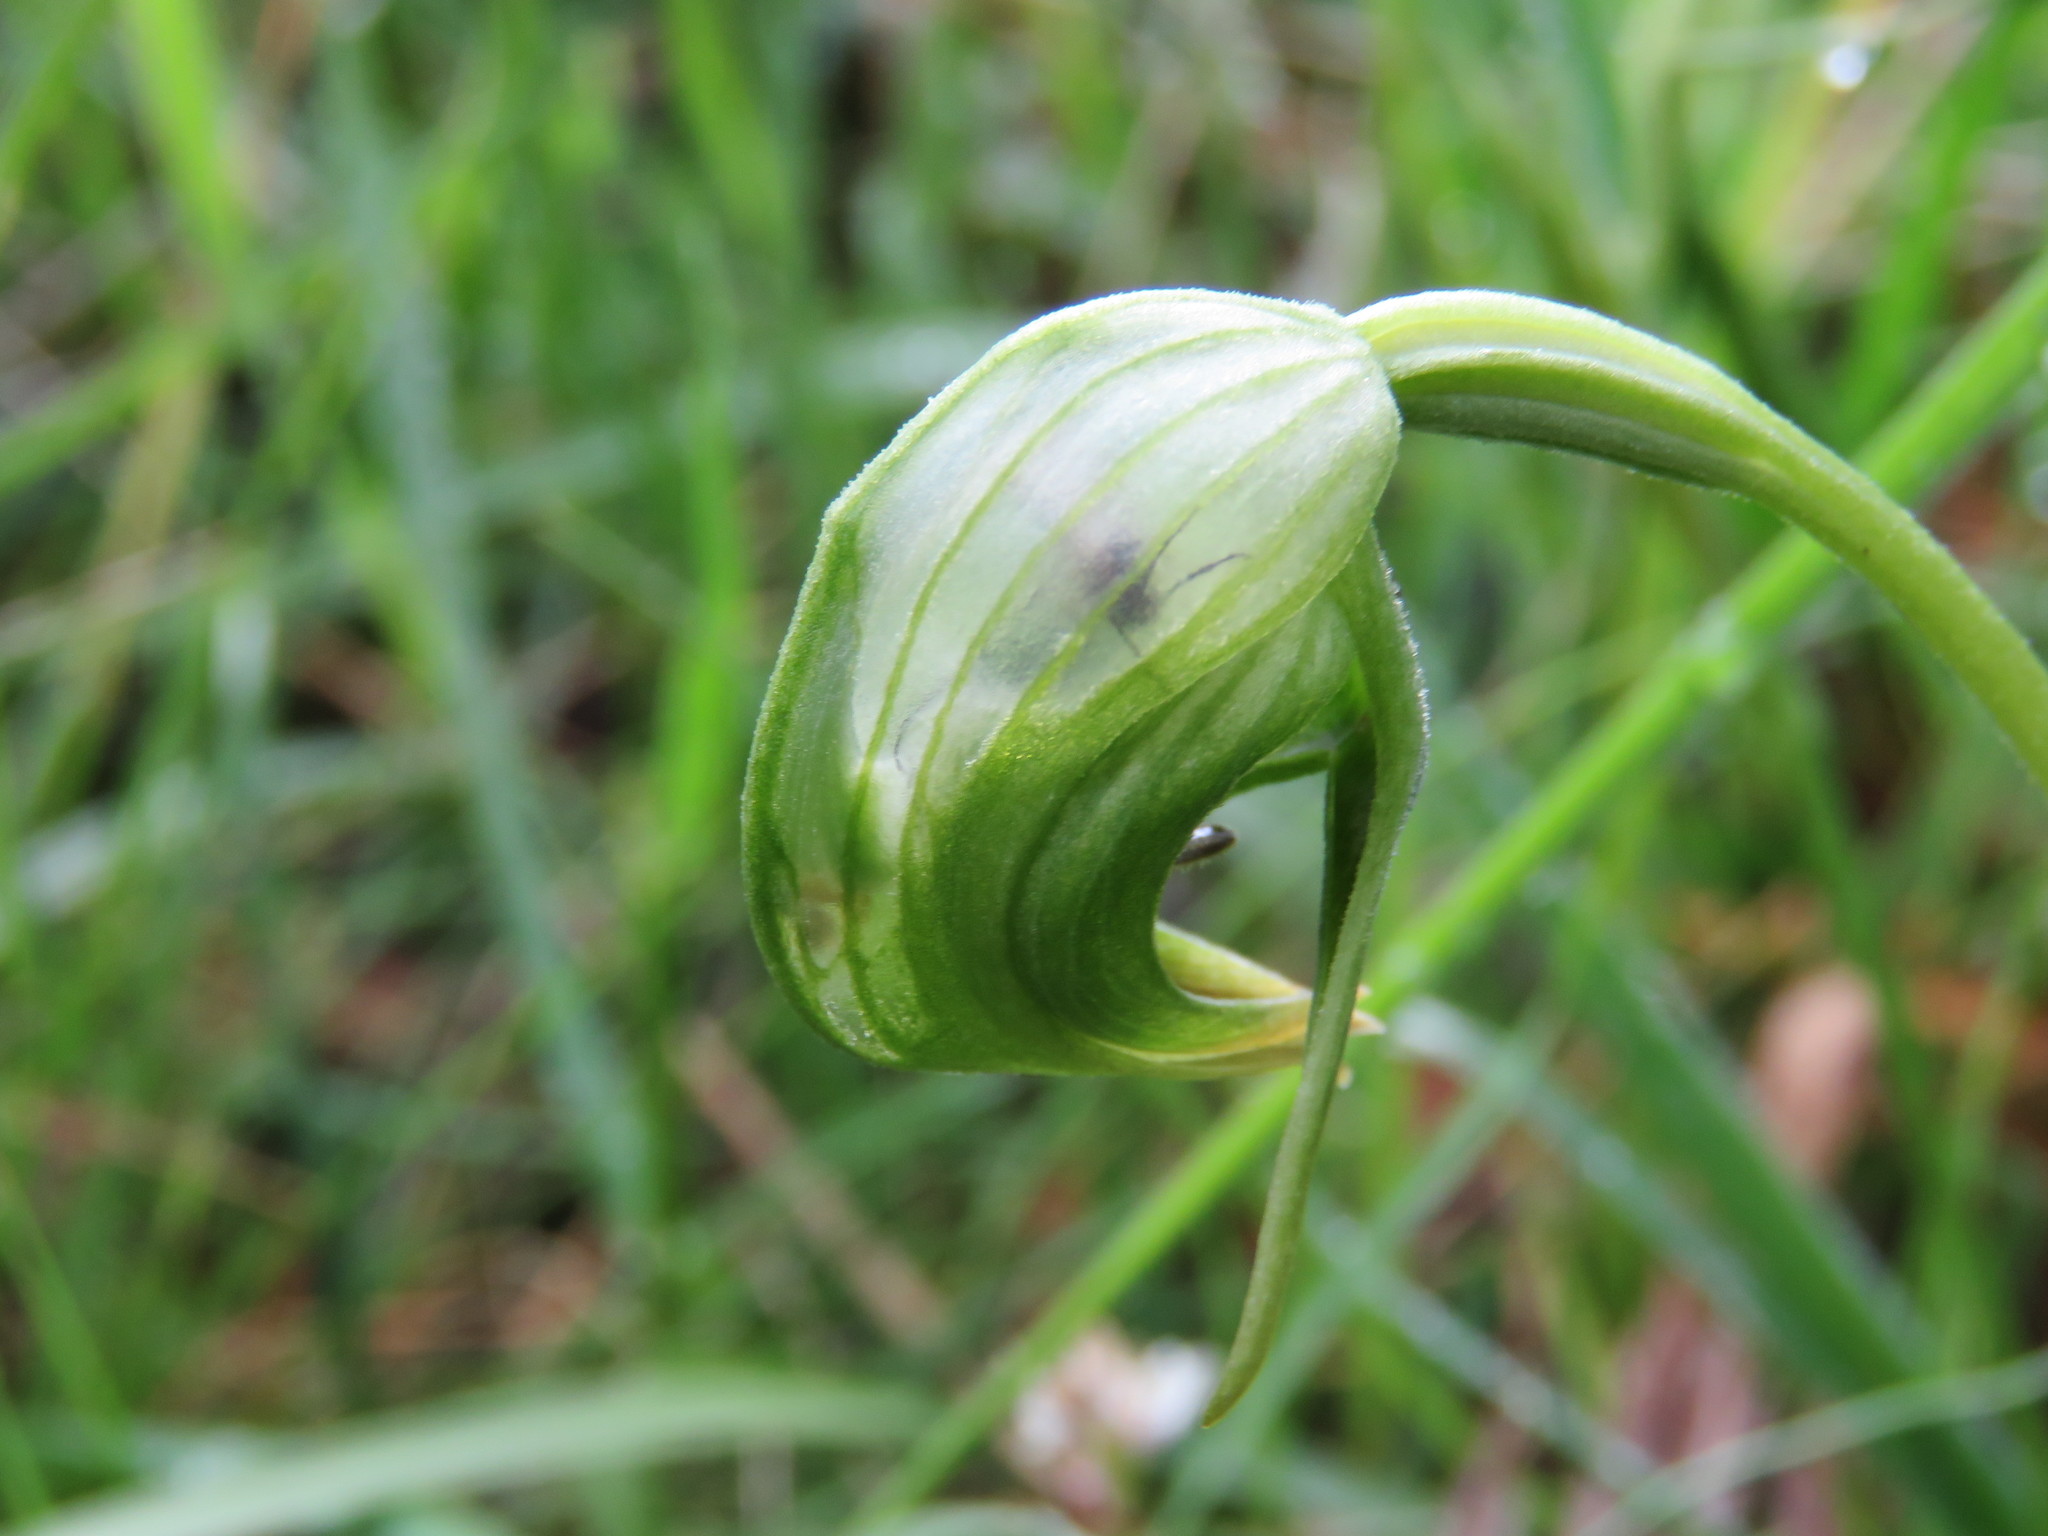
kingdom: Plantae
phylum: Tracheophyta
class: Liliopsida
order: Asparagales
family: Orchidaceae
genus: Pterostylis
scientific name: Pterostylis nutans
